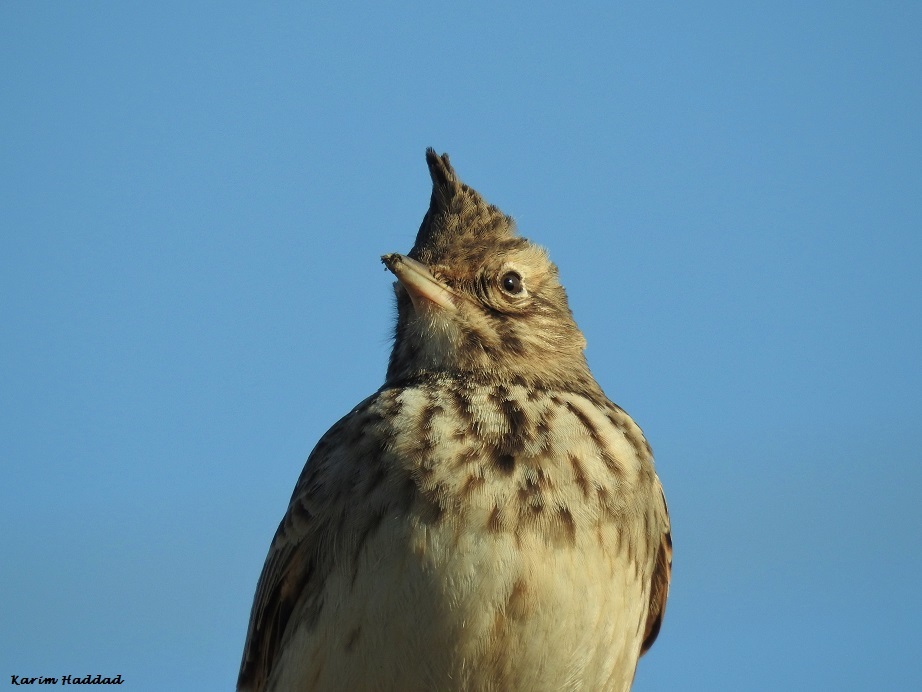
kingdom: Animalia
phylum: Chordata
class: Aves
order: Passeriformes
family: Alaudidae
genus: Galerida
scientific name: Galerida cristata
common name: Crested lark
